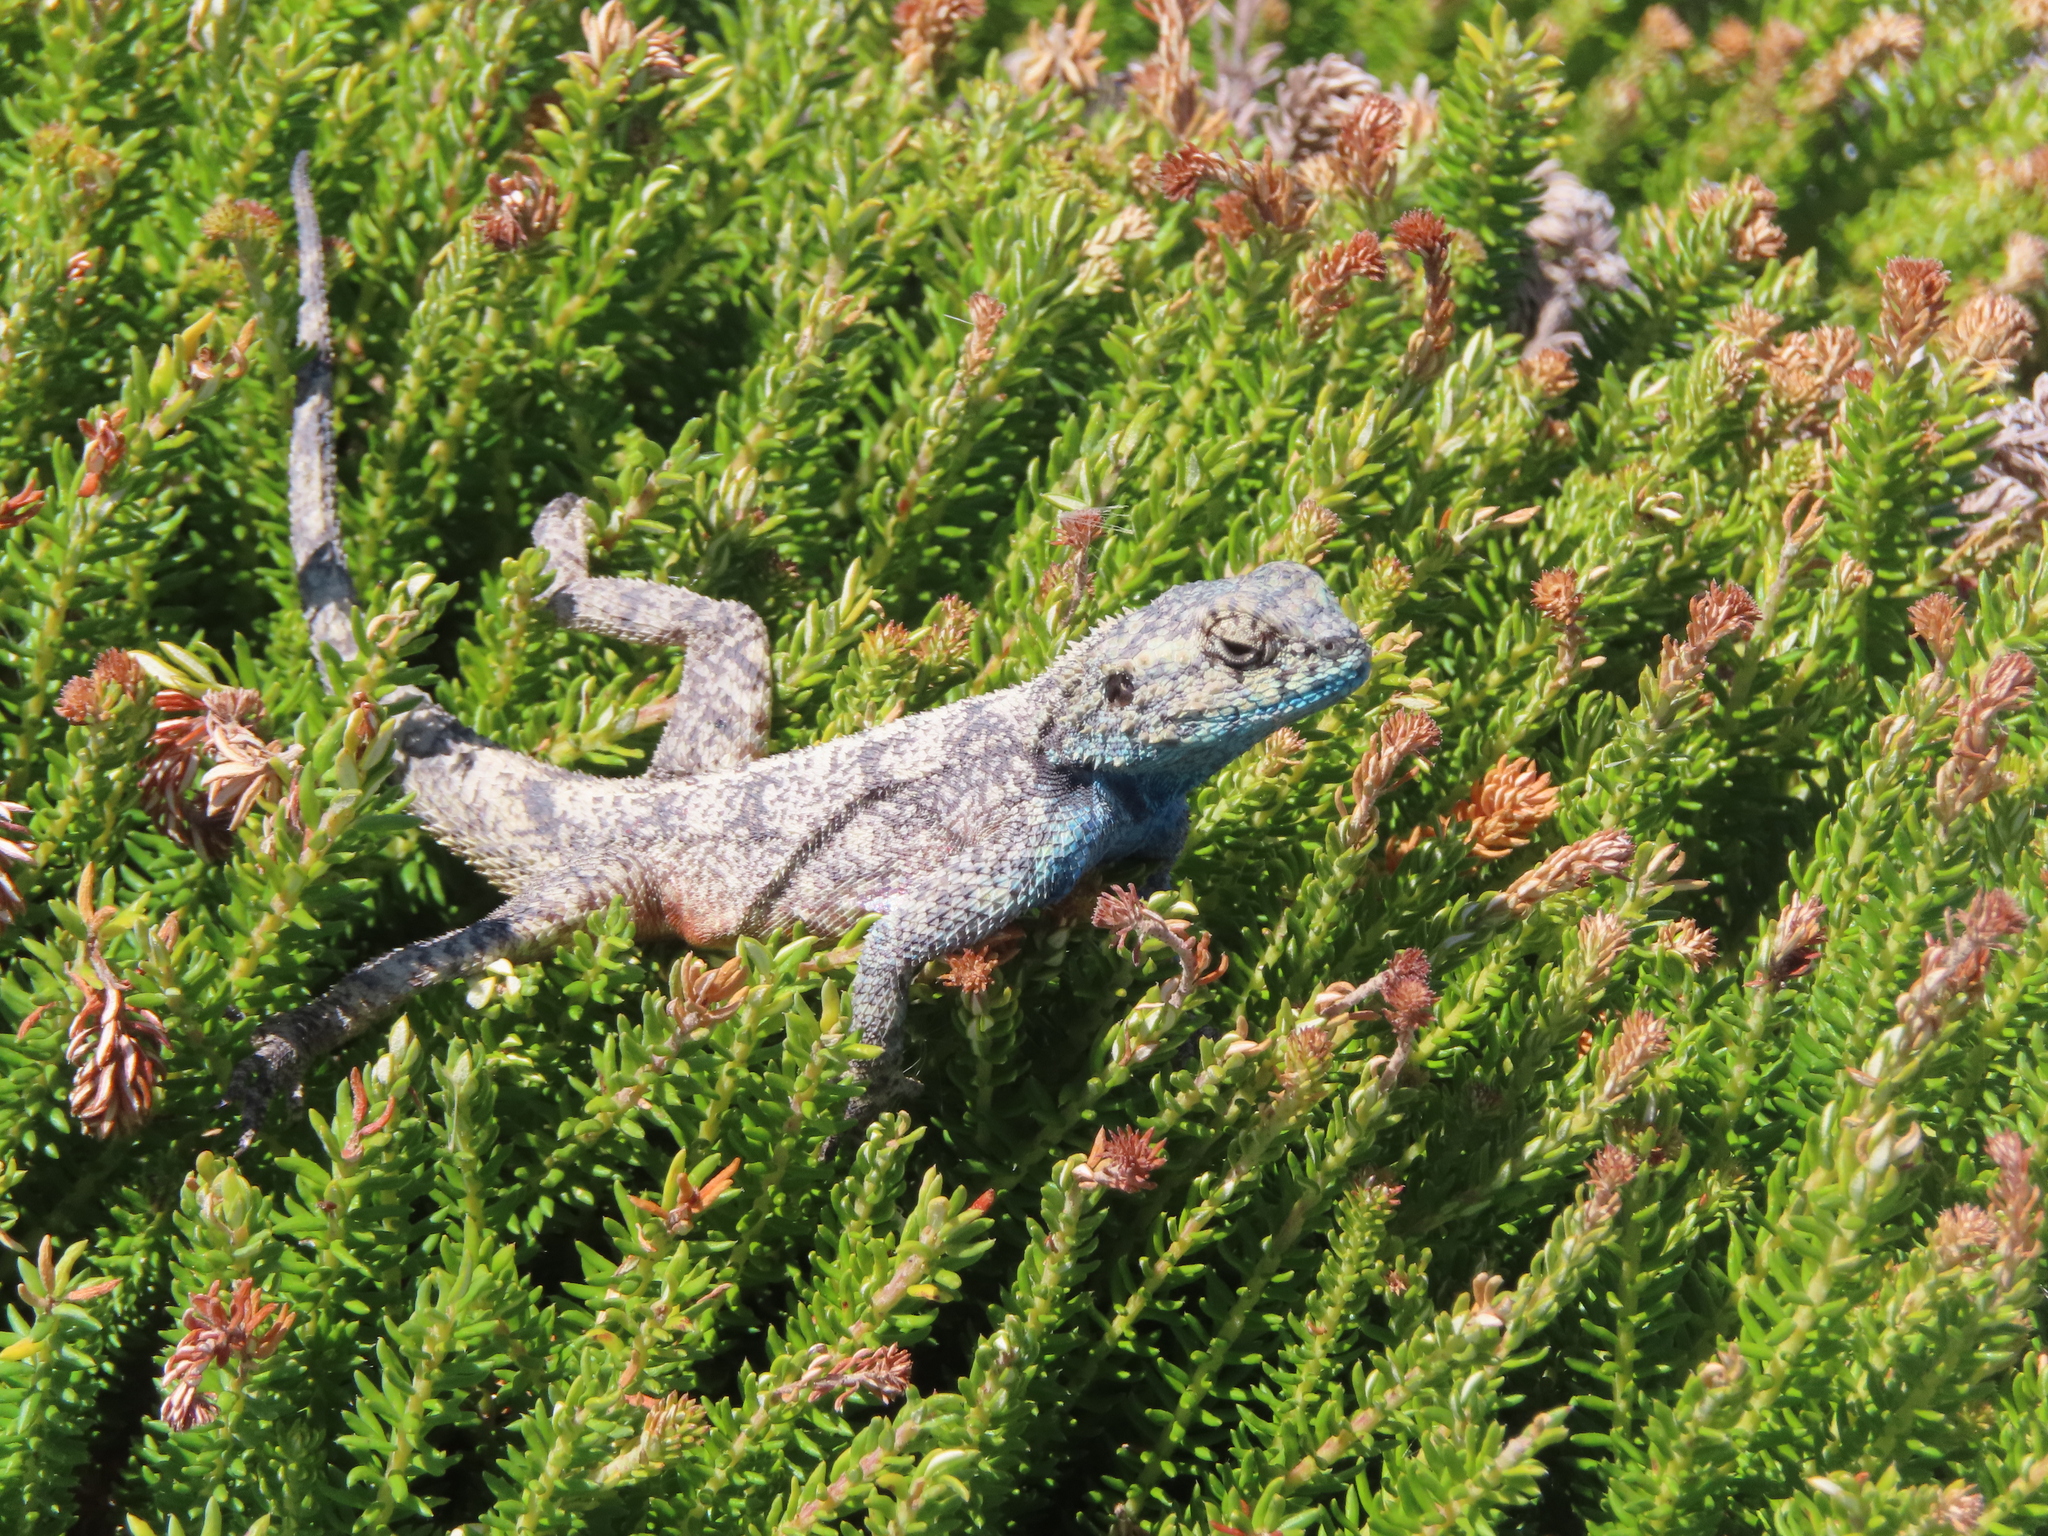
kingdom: Animalia
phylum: Chordata
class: Squamata
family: Agamidae
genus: Agama
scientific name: Agama atra
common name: Southern african rock agama
